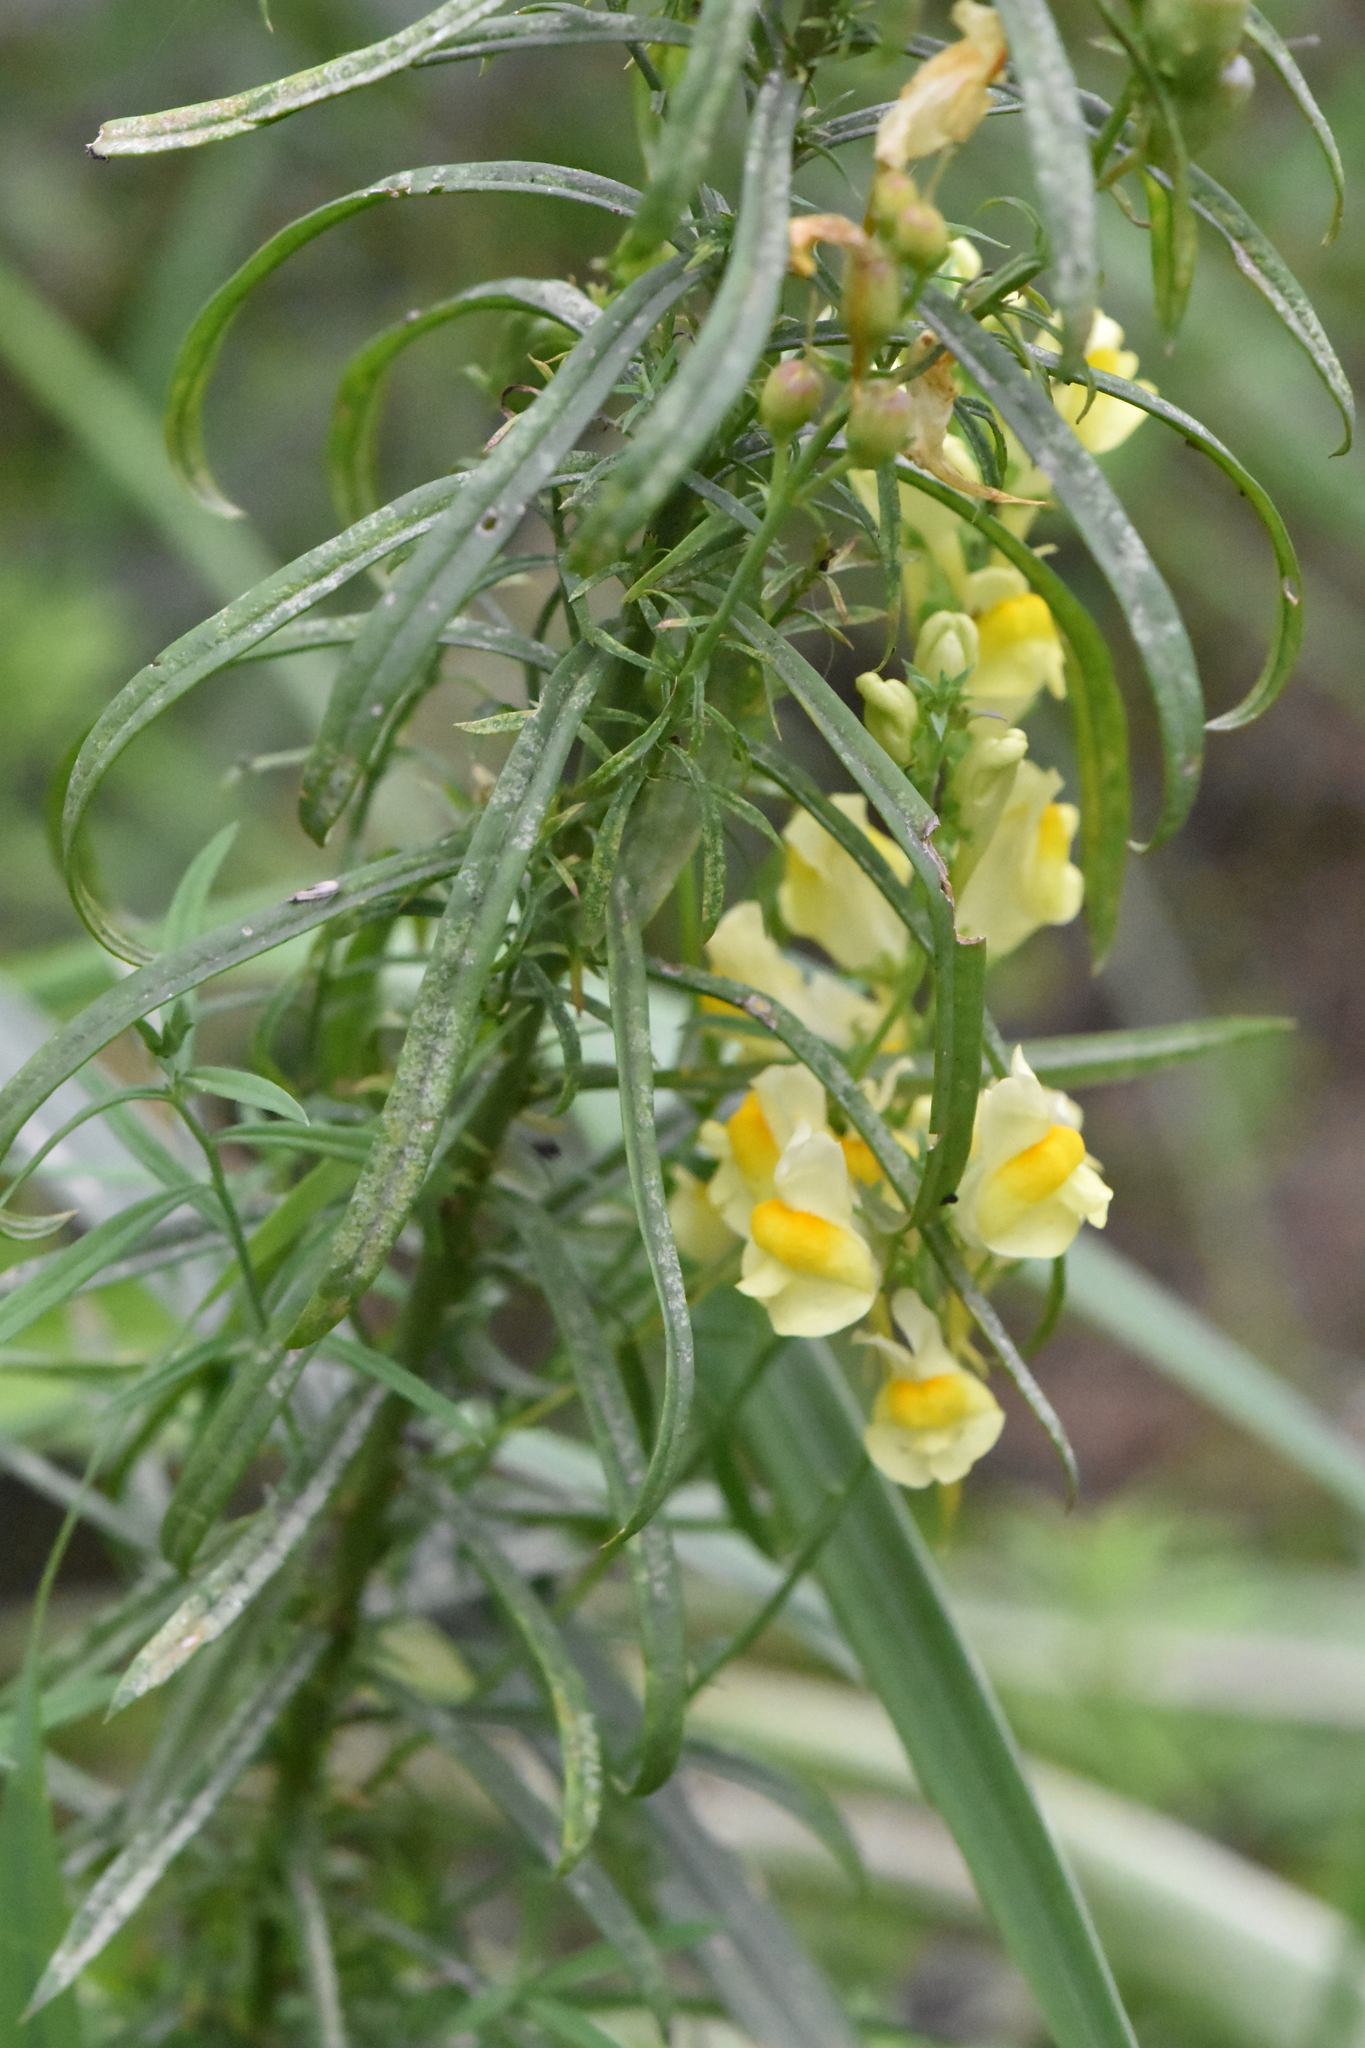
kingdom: Plantae
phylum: Tracheophyta
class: Magnoliopsida
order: Lamiales
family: Plantaginaceae
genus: Linaria
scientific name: Linaria vulgaris
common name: Butter and eggs
